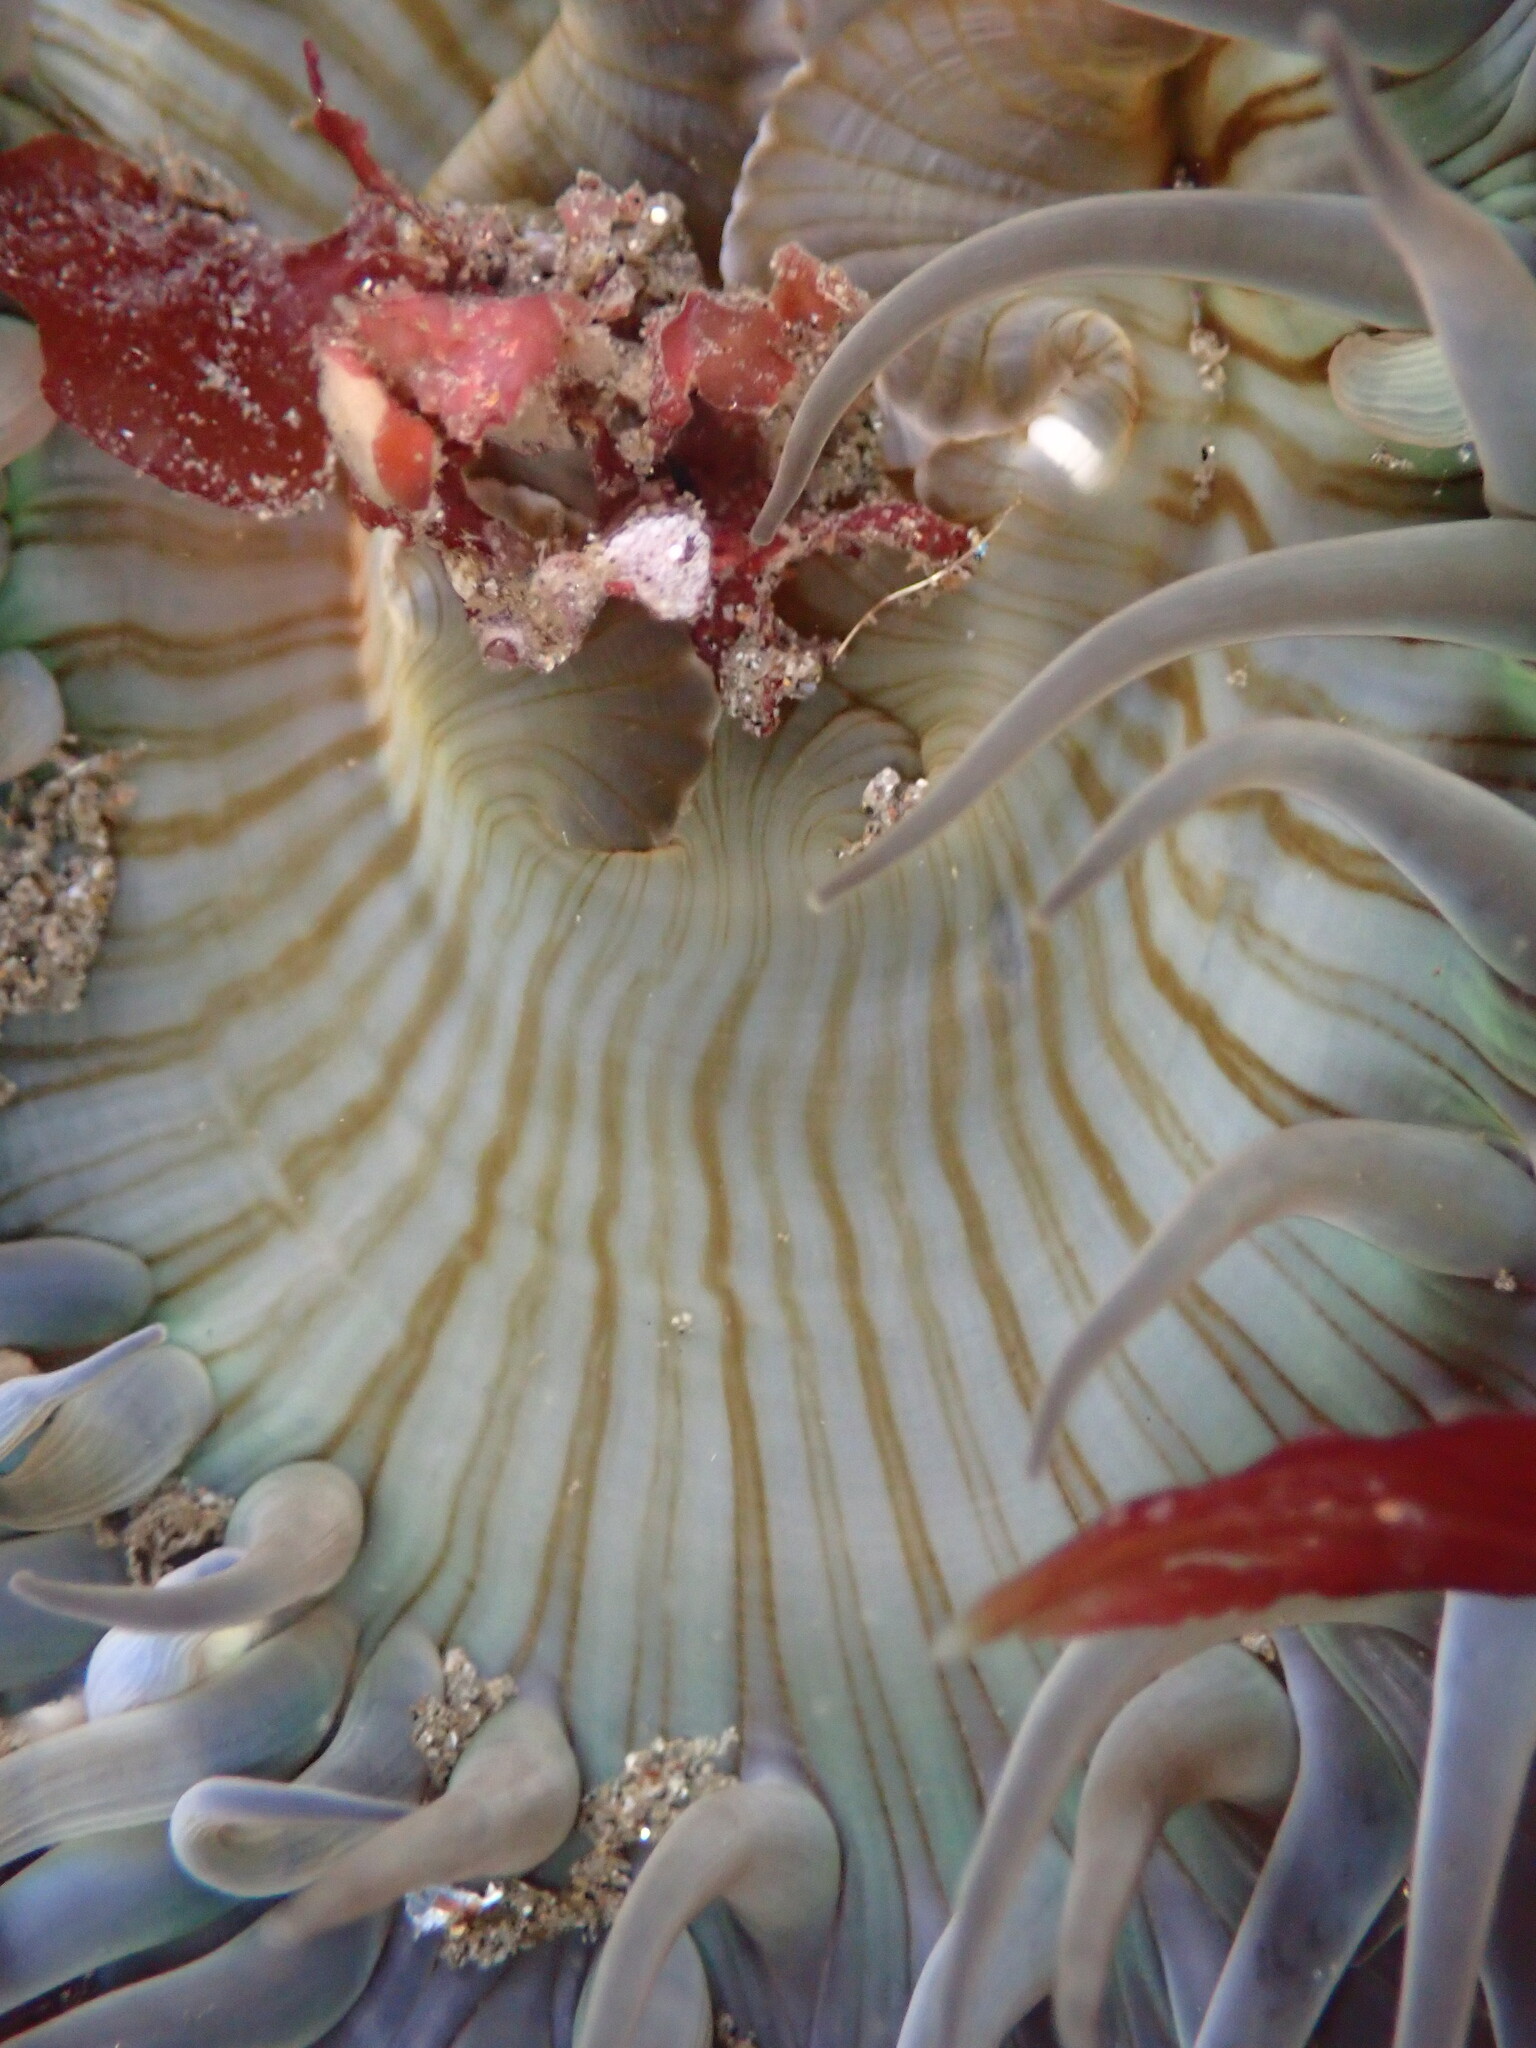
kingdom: Animalia
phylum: Cnidaria
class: Anthozoa
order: Actiniaria
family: Actiniidae
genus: Anthopleura
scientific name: Anthopleura sola
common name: Sun anemone
